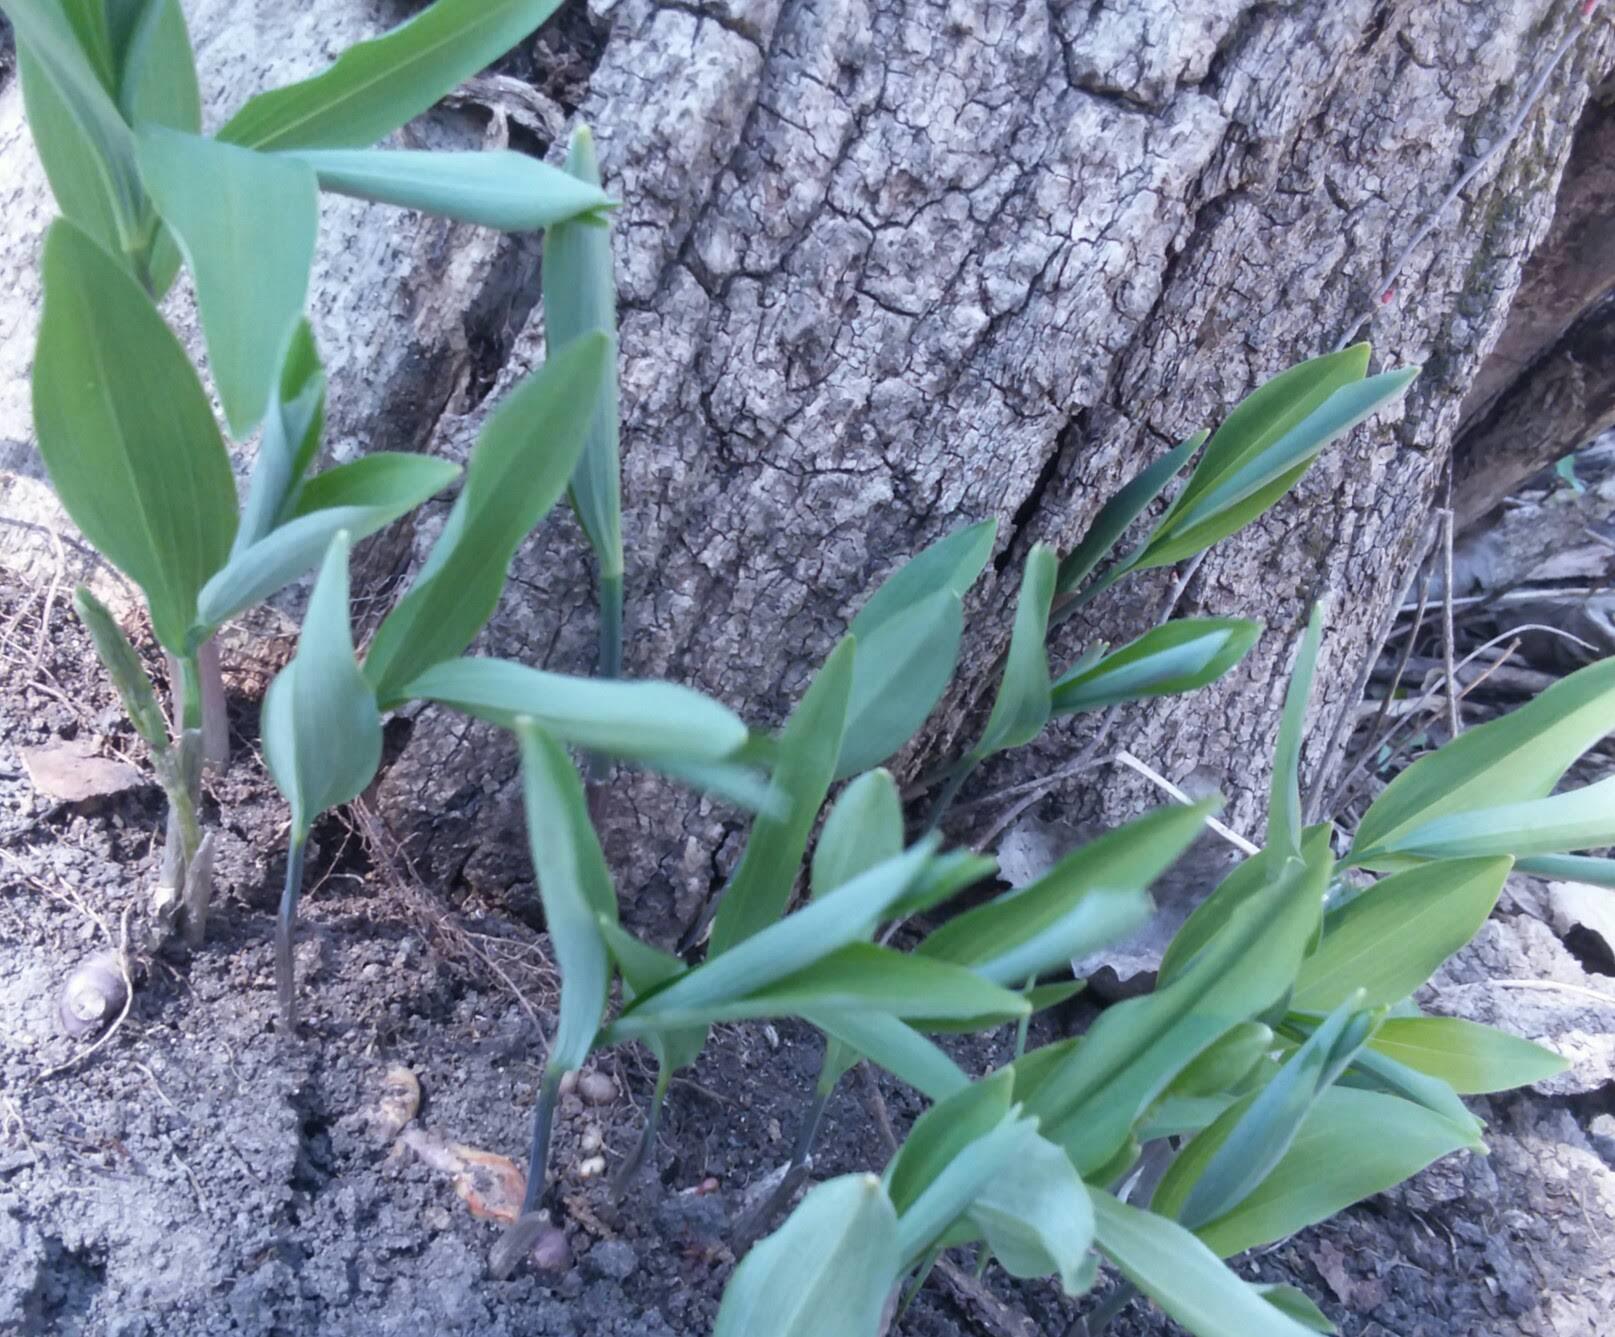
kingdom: Plantae
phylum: Tracheophyta
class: Liliopsida
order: Asparagales
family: Asparagaceae
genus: Polygonatum
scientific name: Polygonatum biflorum
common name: American solomon's-seal
